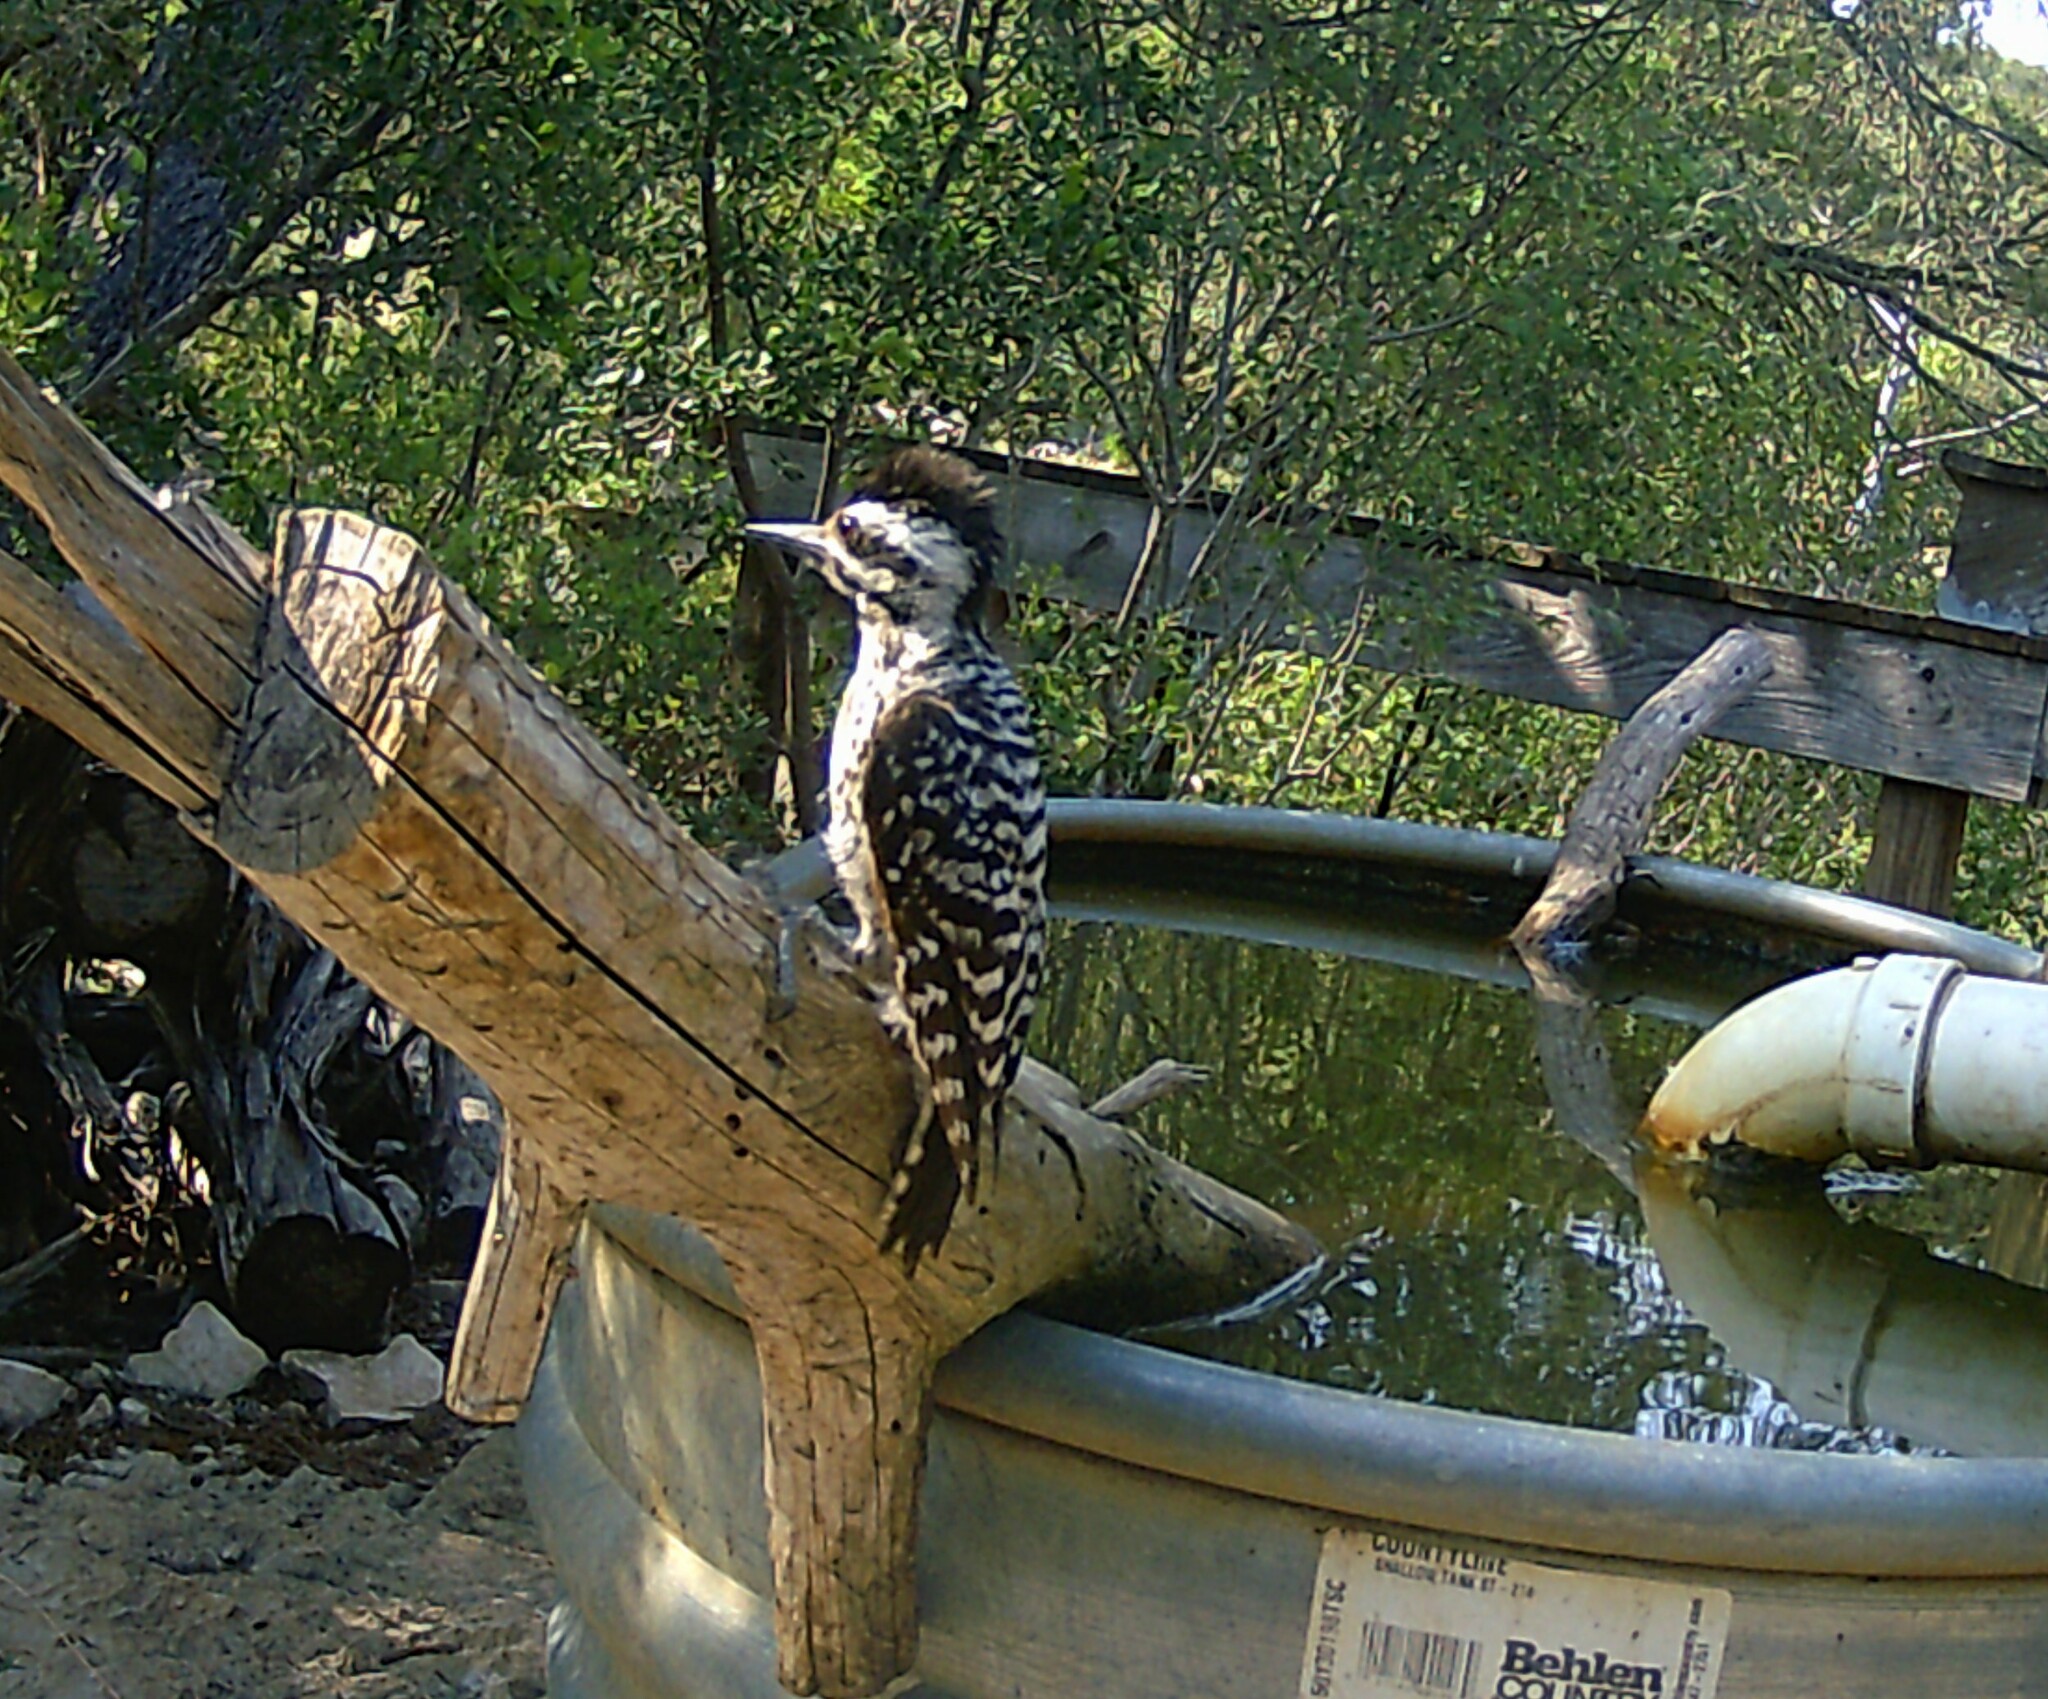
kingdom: Animalia
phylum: Chordata
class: Aves
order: Piciformes
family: Picidae
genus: Dryobates
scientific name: Dryobates scalaris
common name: Ladder-backed woodpecker
